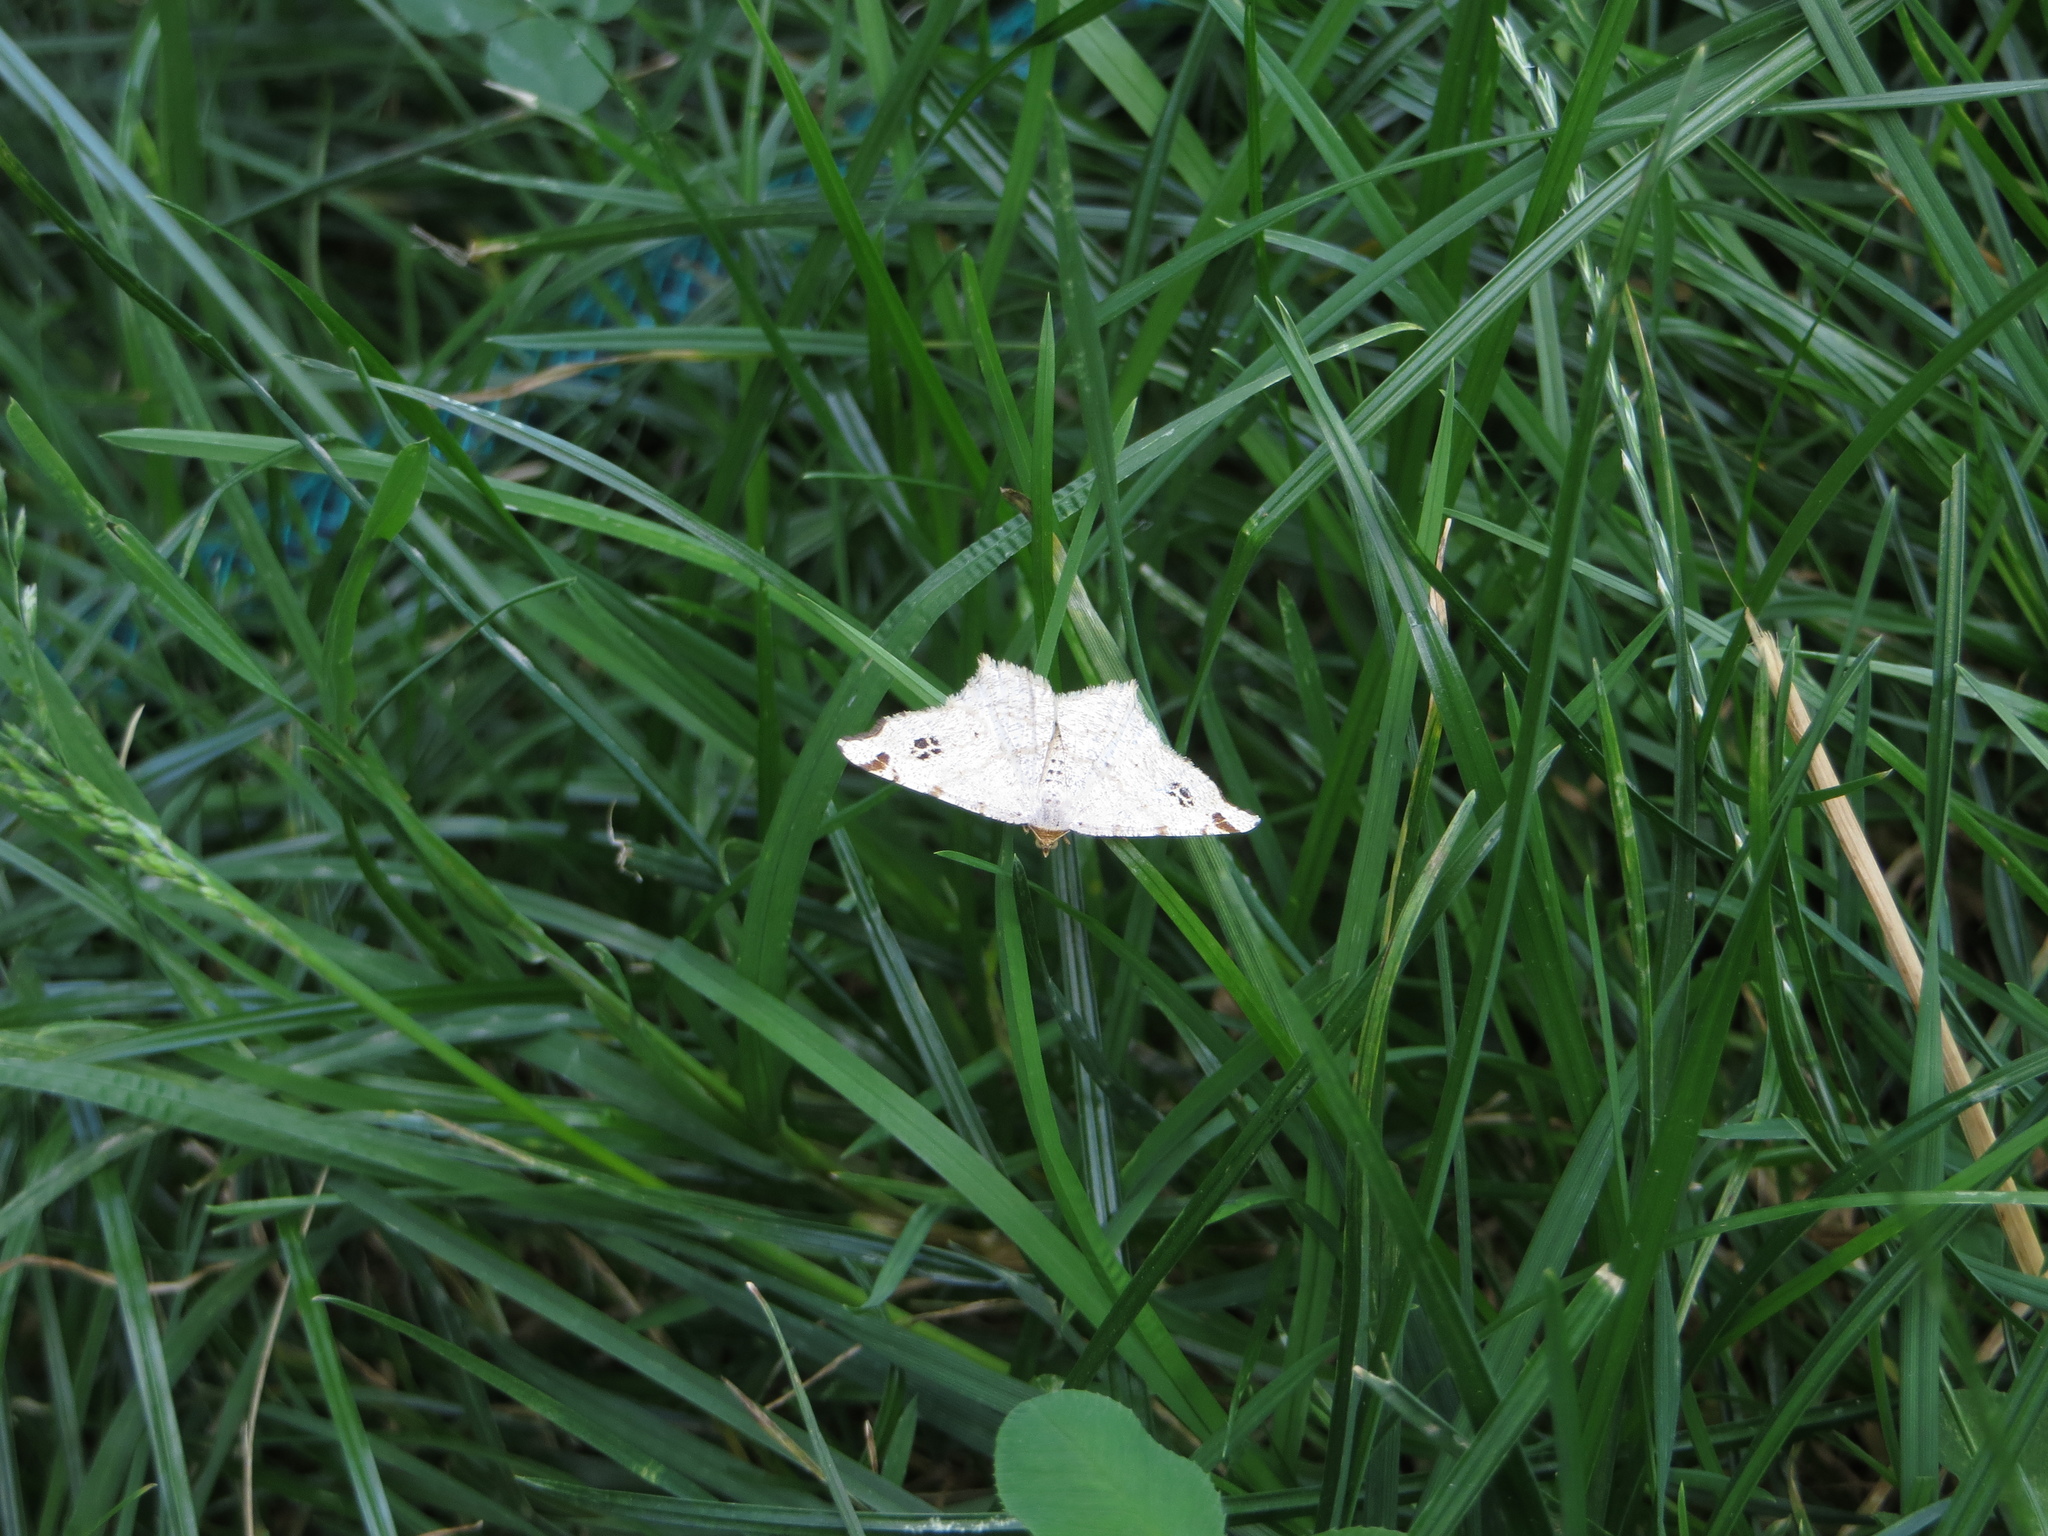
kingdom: Animalia
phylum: Arthropoda
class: Insecta
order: Lepidoptera
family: Geometridae
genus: Macaria
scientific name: Macaria notata
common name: Peacock moth
